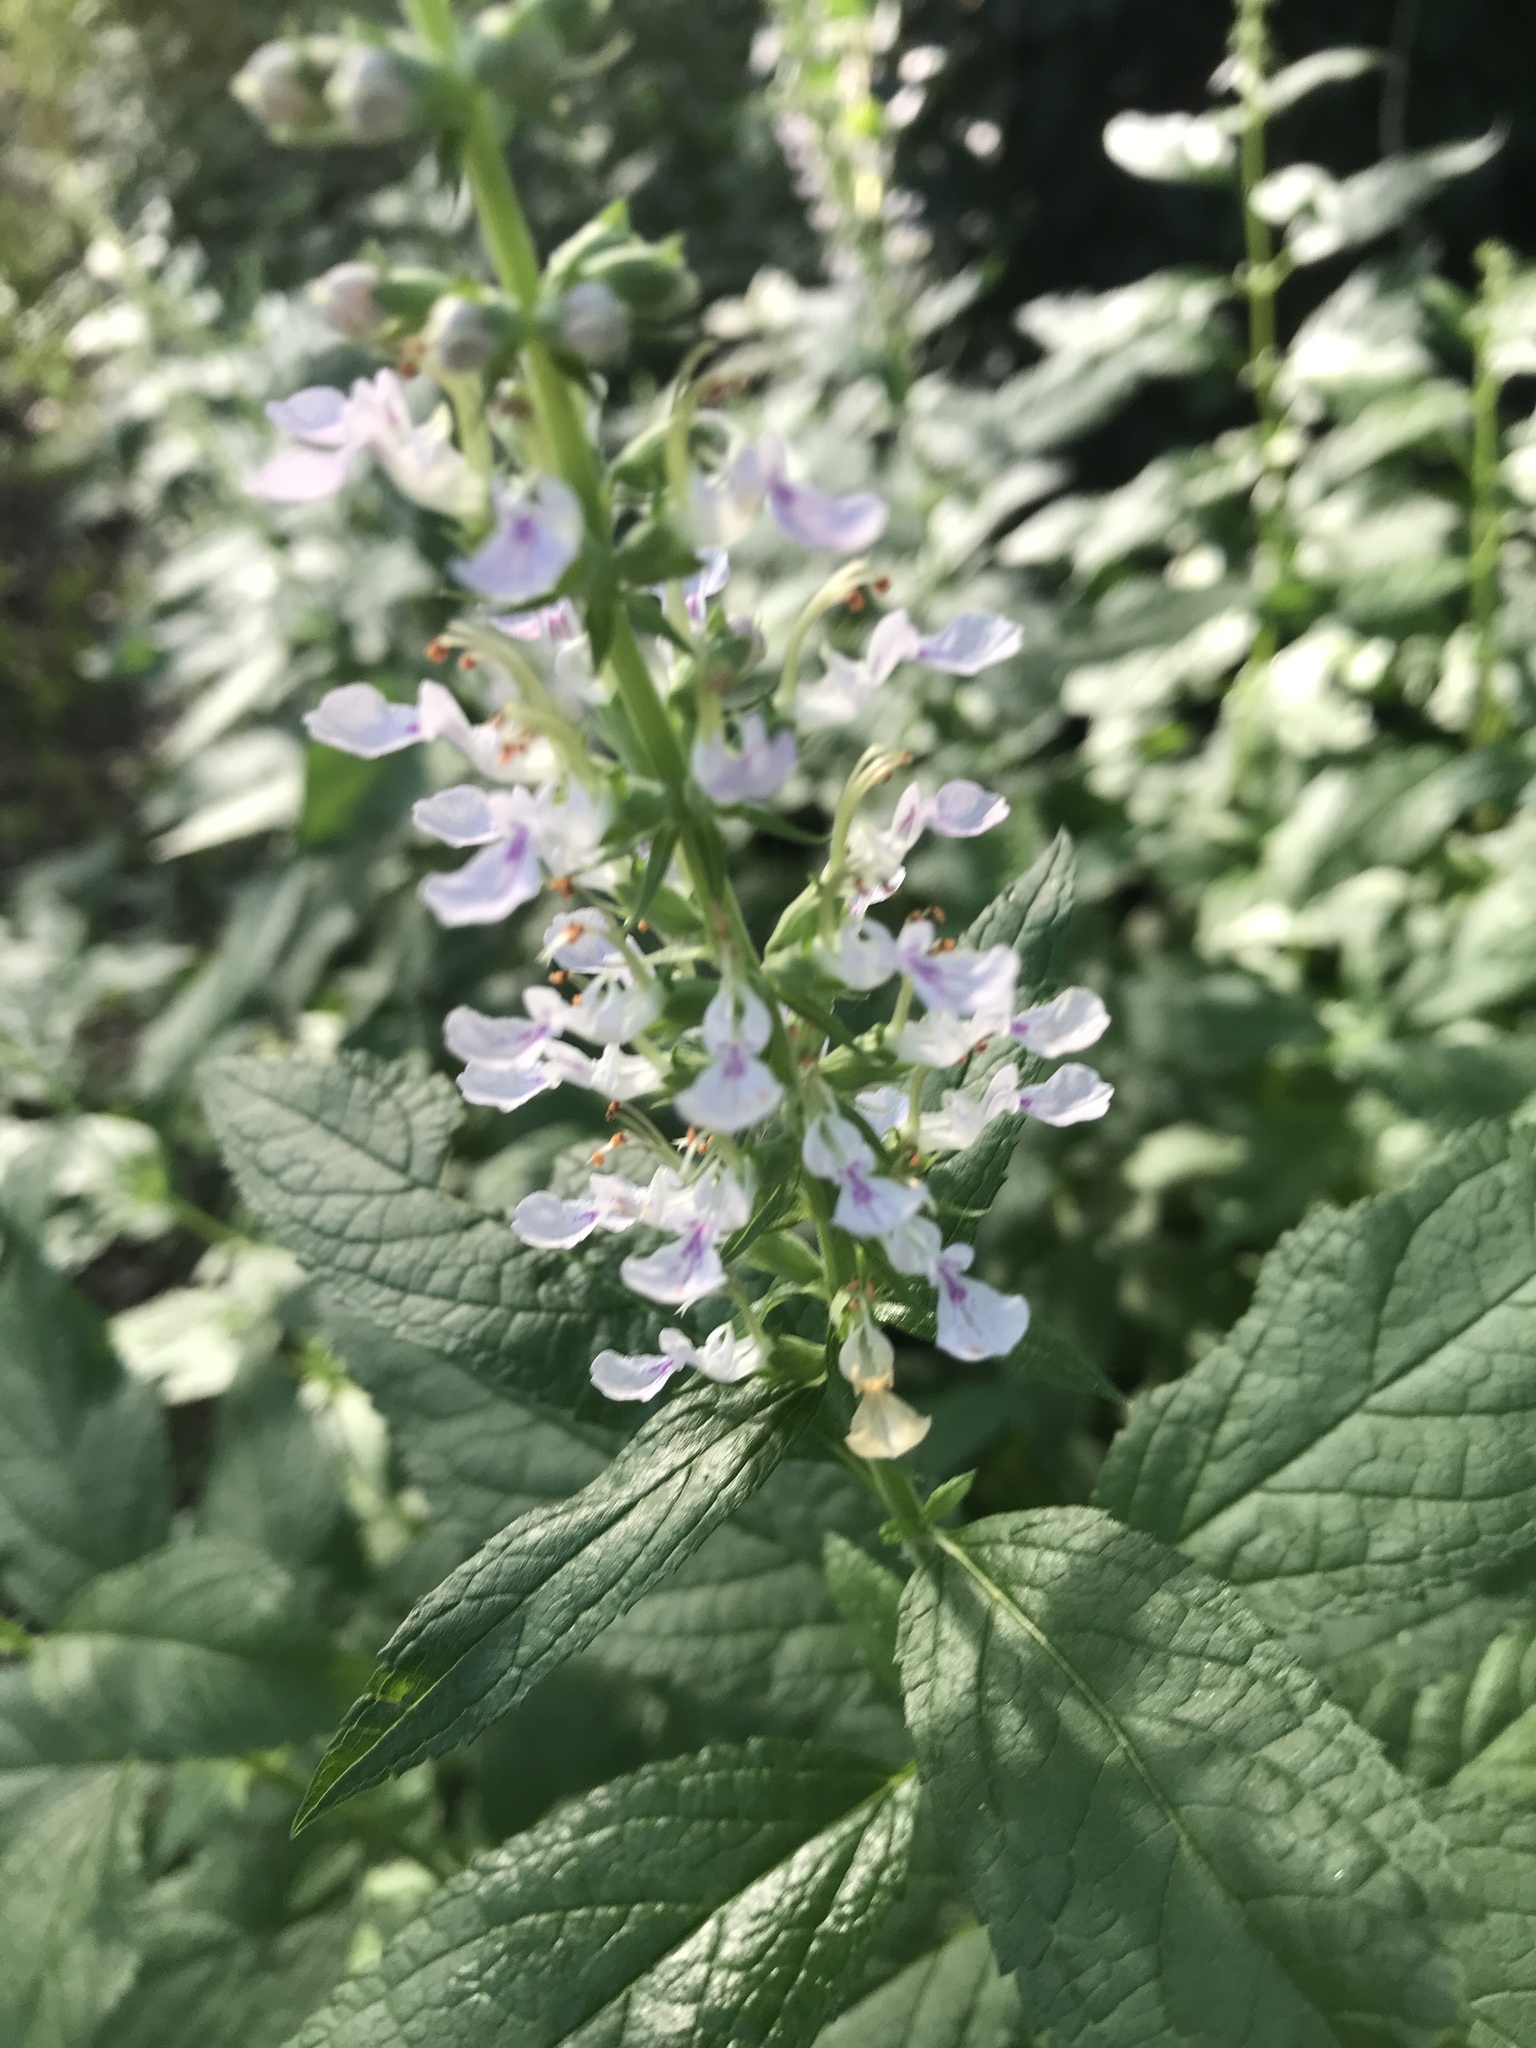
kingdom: Plantae
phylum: Tracheophyta
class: Magnoliopsida
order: Lamiales
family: Lamiaceae
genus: Teucrium
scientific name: Teucrium canadense
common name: American germander
